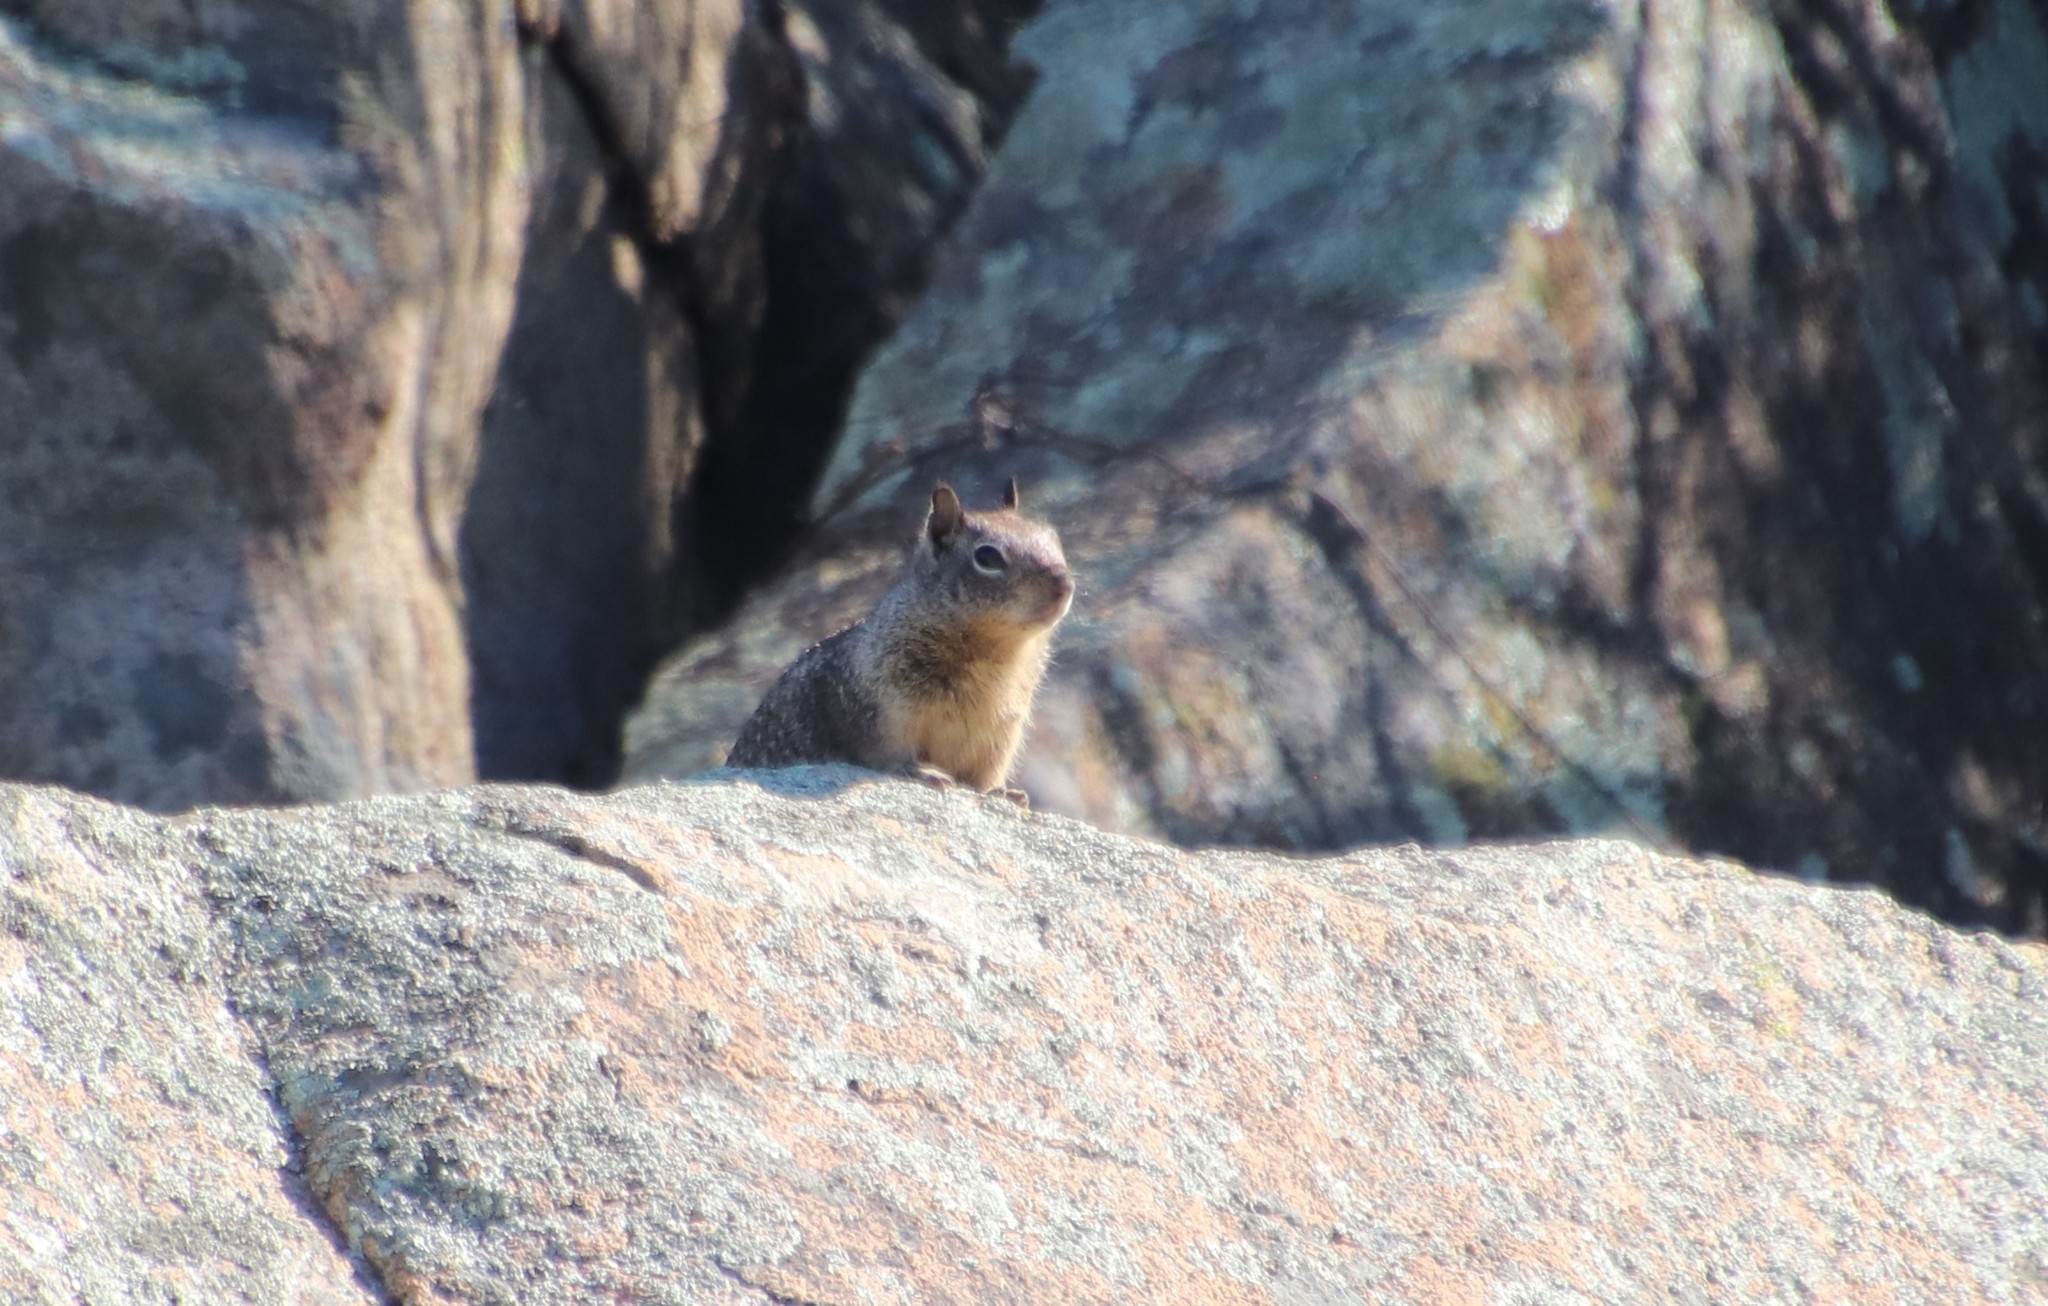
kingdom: Animalia
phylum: Chordata
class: Mammalia
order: Rodentia
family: Sciuridae
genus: Otospermophilus
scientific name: Otospermophilus beecheyi
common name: California ground squirrel
